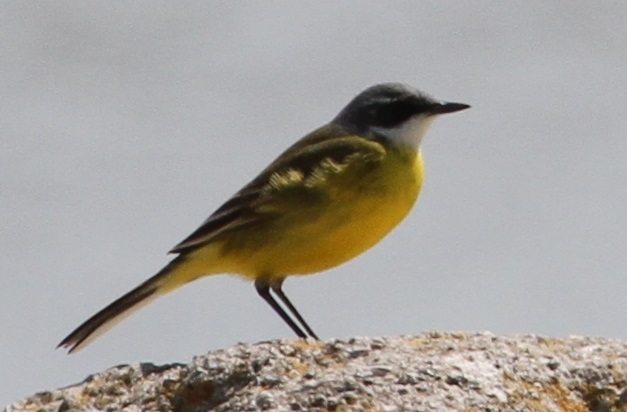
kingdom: Animalia
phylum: Chordata
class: Aves
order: Passeriformes
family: Motacillidae
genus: Motacilla
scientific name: Motacilla flava
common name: Western yellow wagtail
